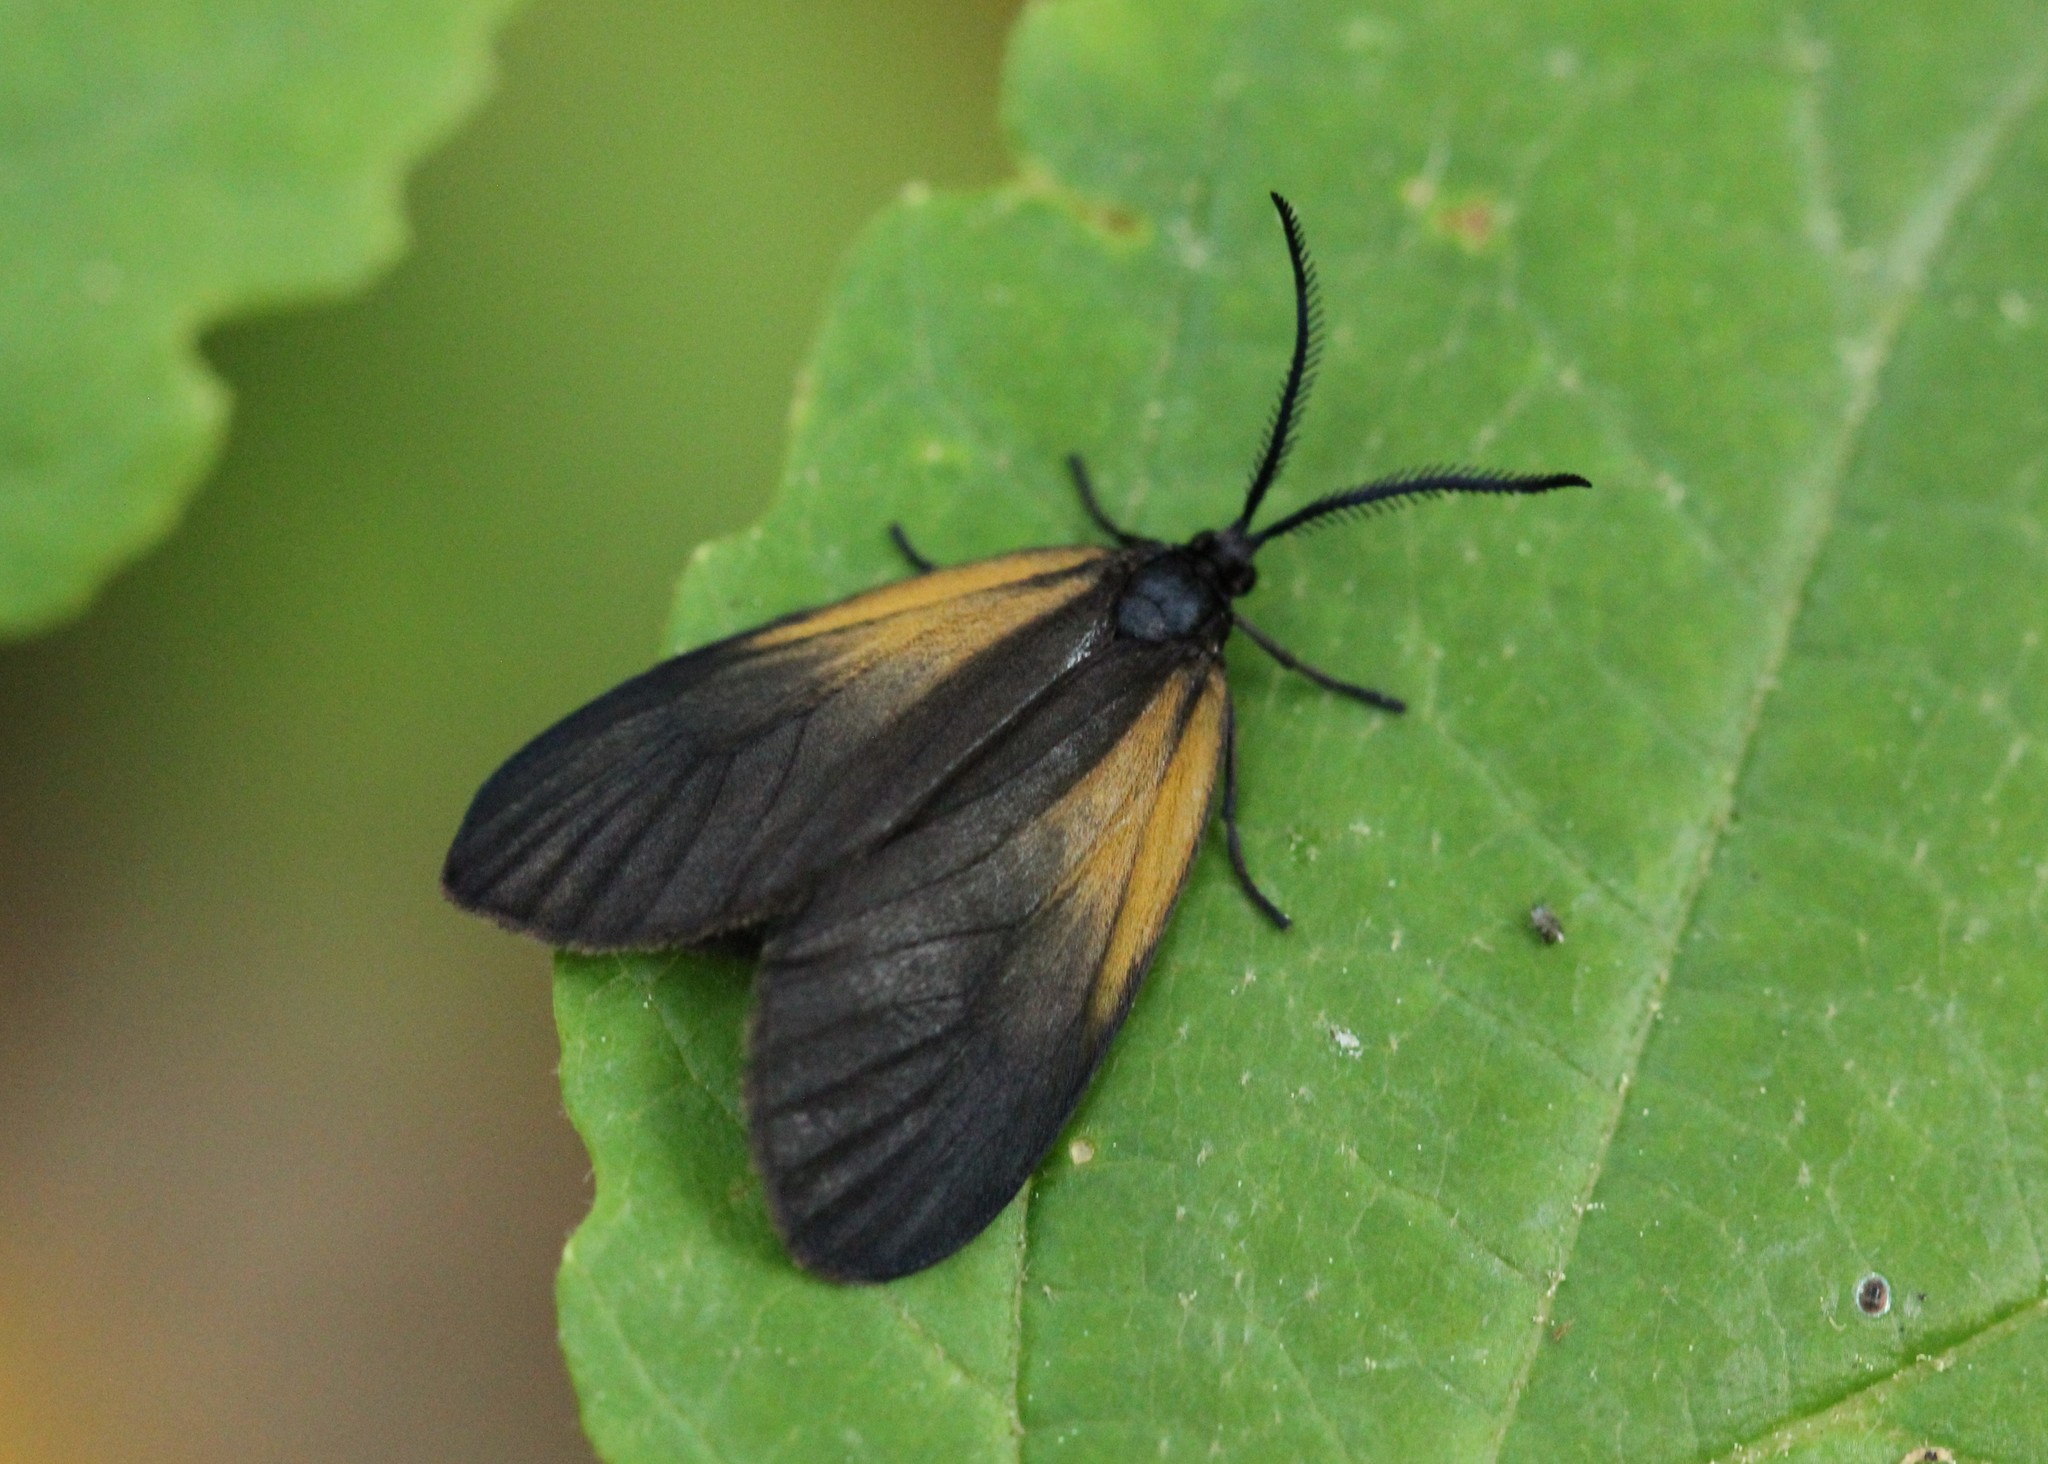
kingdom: Animalia
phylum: Arthropoda
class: Insecta
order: Lepidoptera
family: Zygaenidae
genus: Malthaca
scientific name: Malthaca dimidiata
